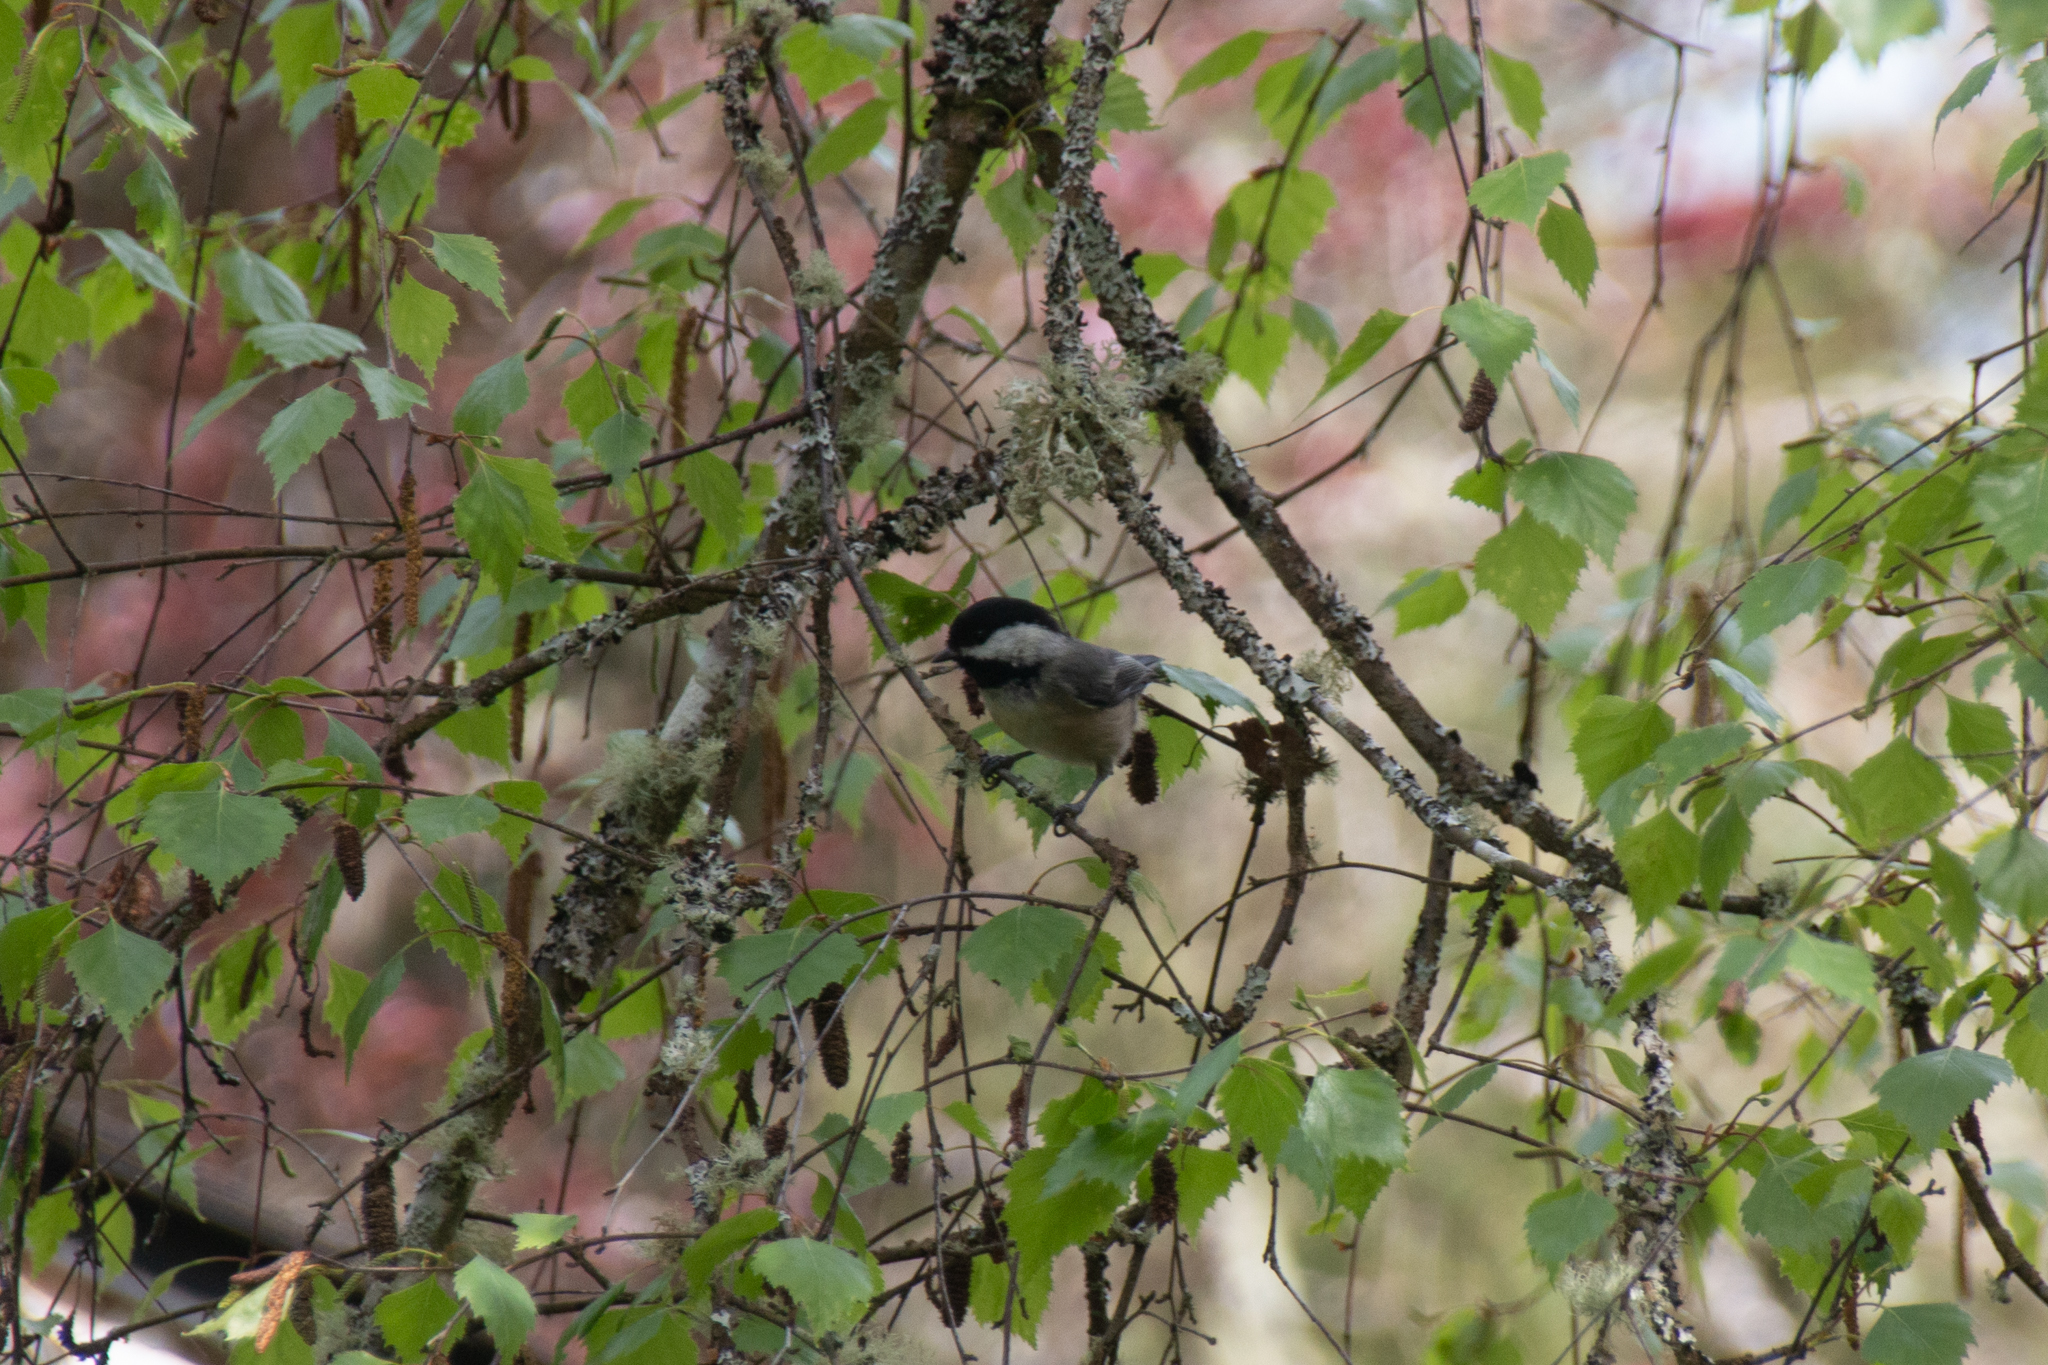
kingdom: Animalia
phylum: Chordata
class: Aves
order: Passeriformes
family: Paridae
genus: Poecile
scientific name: Poecile atricapillus
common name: Black-capped chickadee
